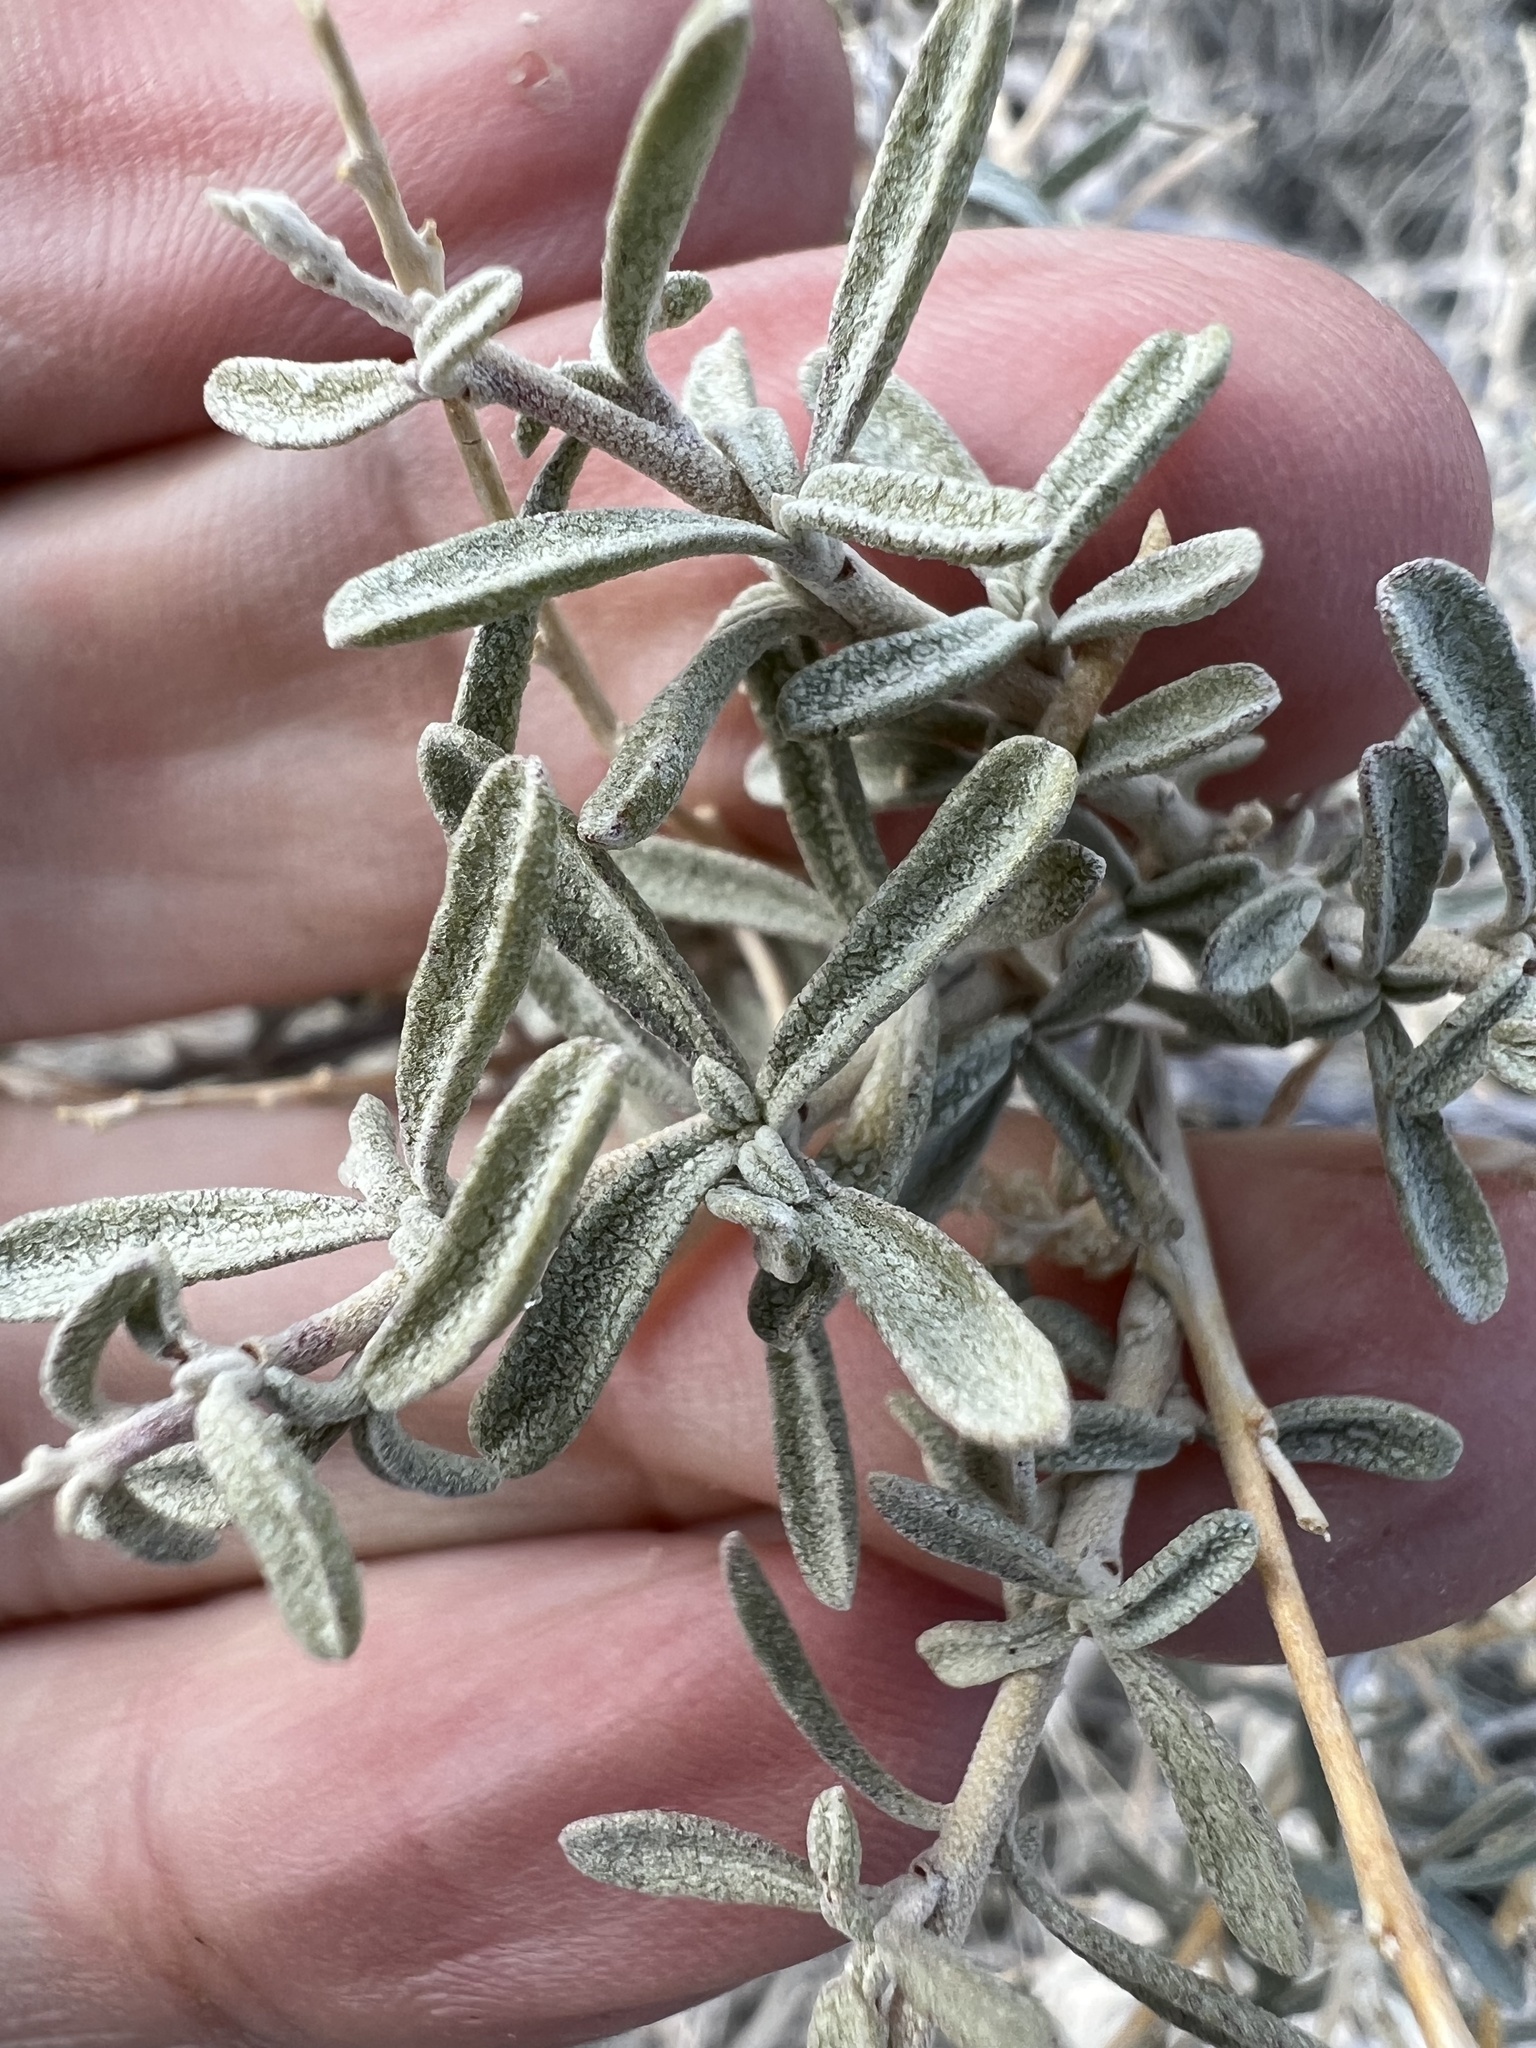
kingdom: Plantae
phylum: Tracheophyta
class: Magnoliopsida
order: Caryophyllales
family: Amaranthaceae
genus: Atriplex
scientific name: Atriplex canescens
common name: Four-wing saltbush
